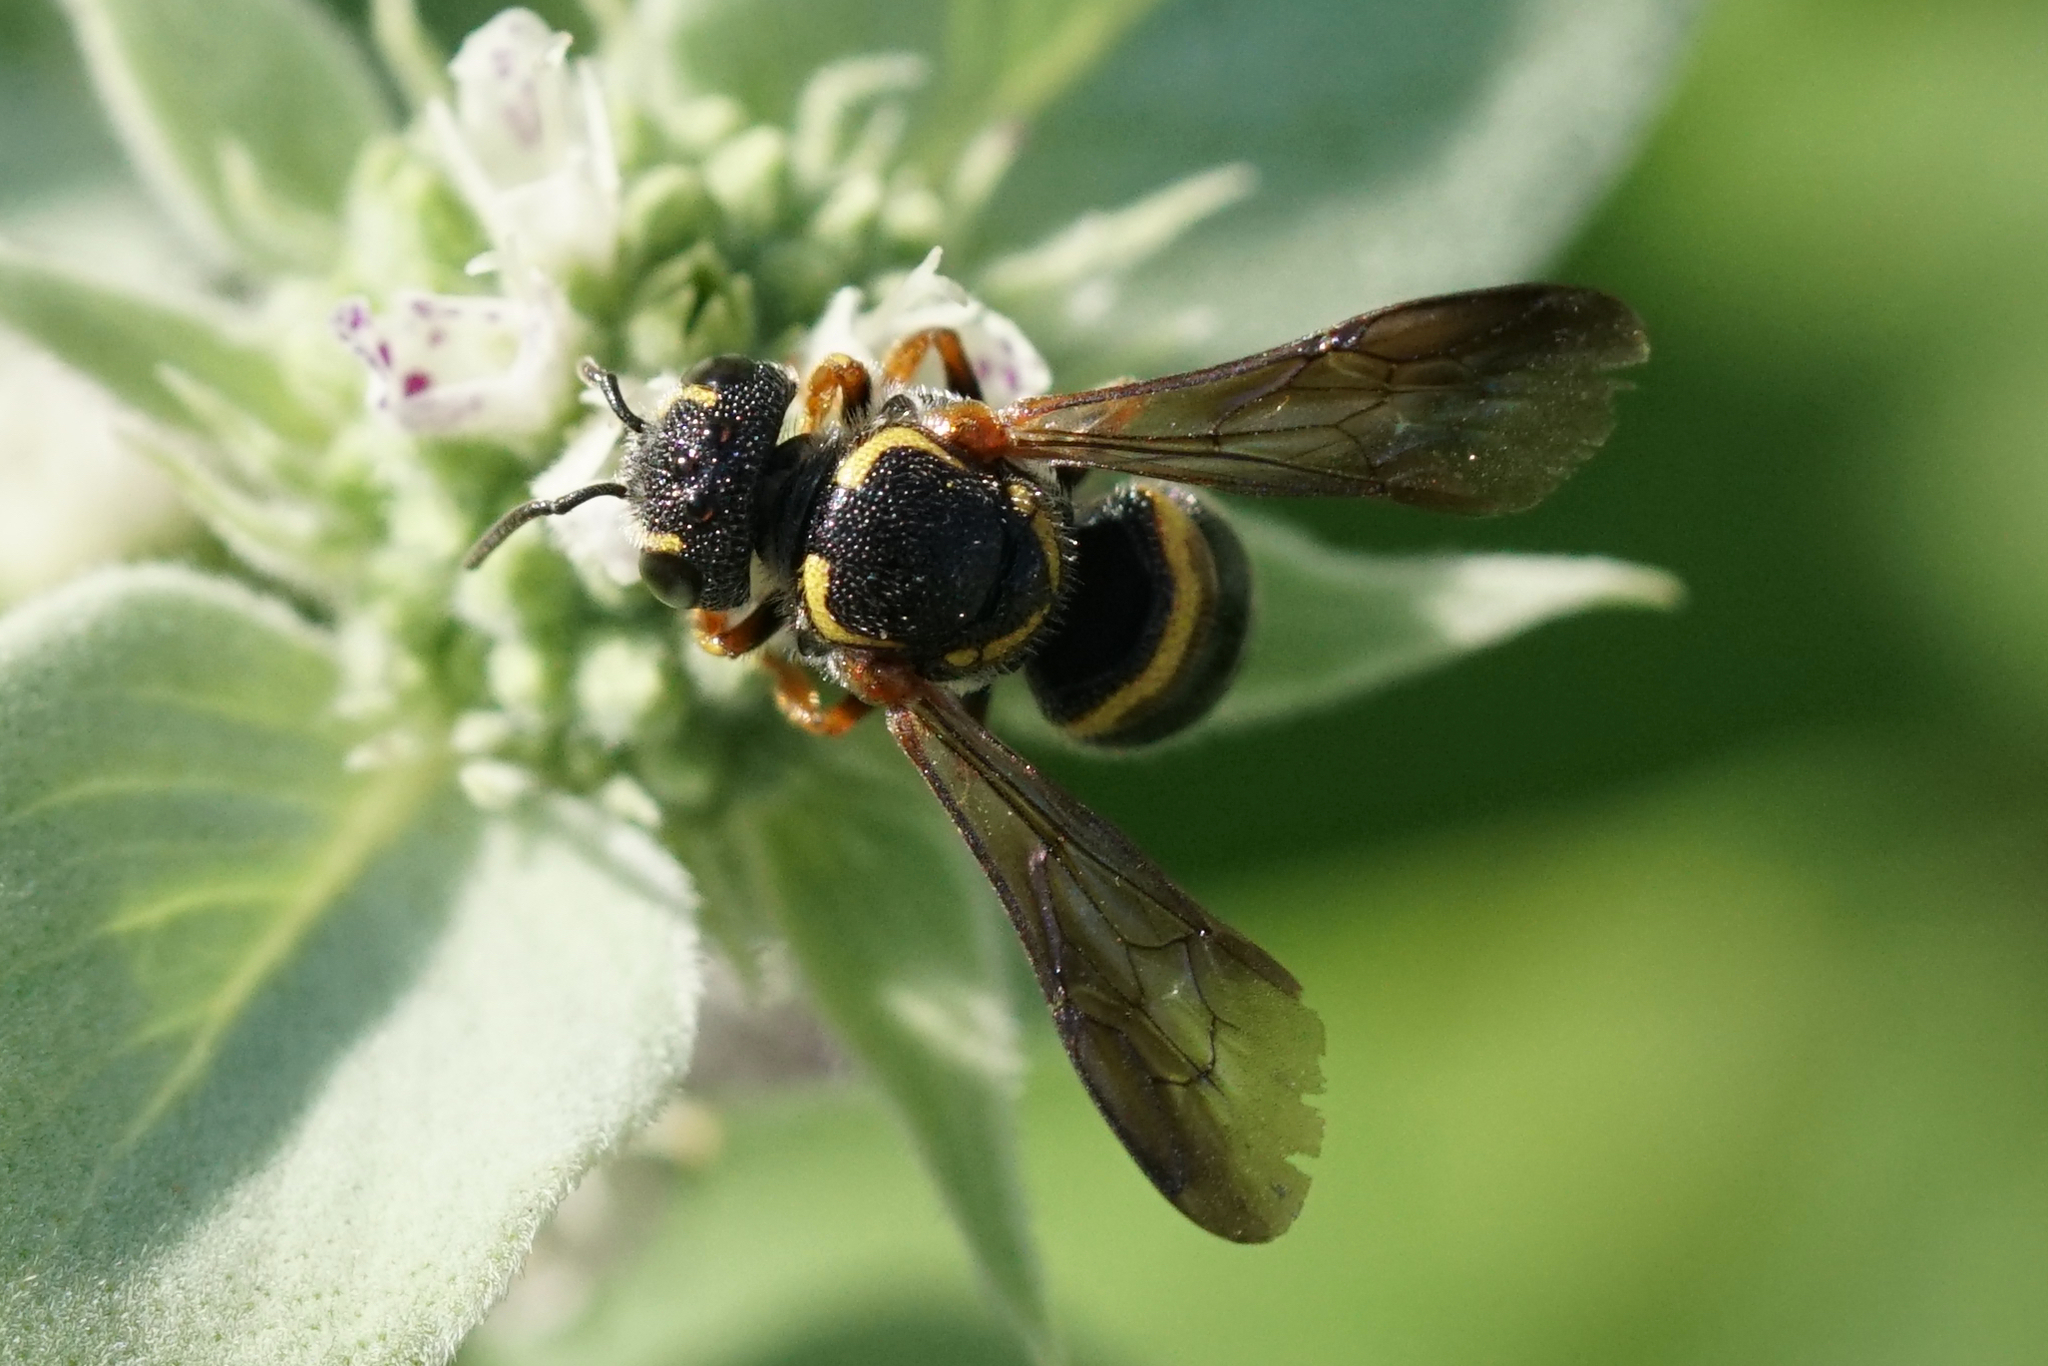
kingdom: Animalia
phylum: Arthropoda
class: Insecta
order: Hymenoptera
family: Megachilidae
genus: Stelis
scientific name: Stelis louisae
